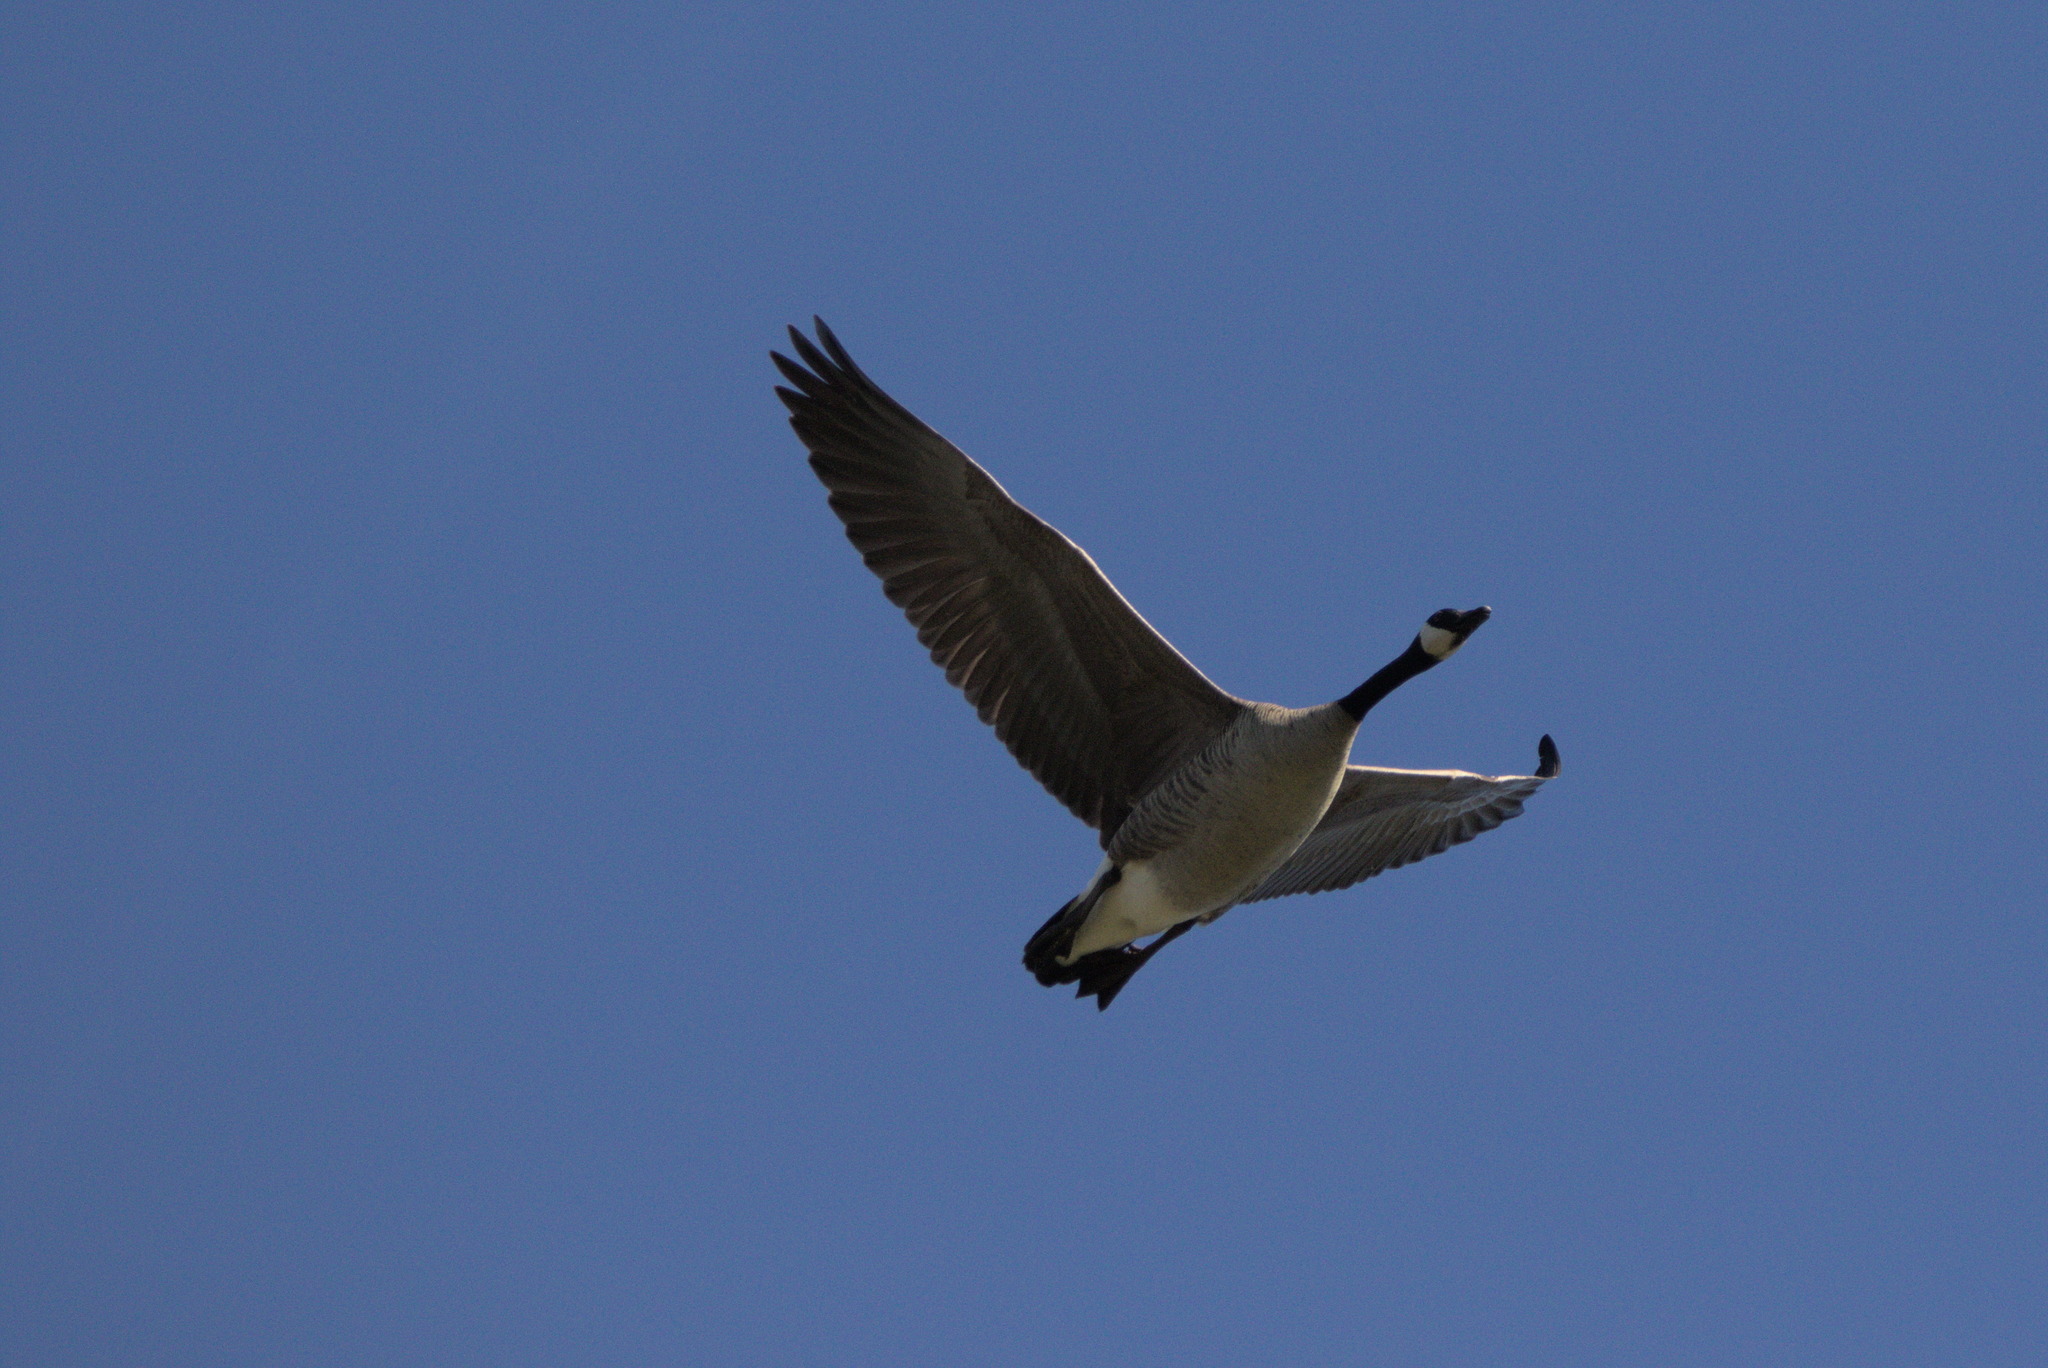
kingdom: Animalia
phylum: Chordata
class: Aves
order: Anseriformes
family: Anatidae
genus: Branta
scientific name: Branta canadensis
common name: Canada goose
